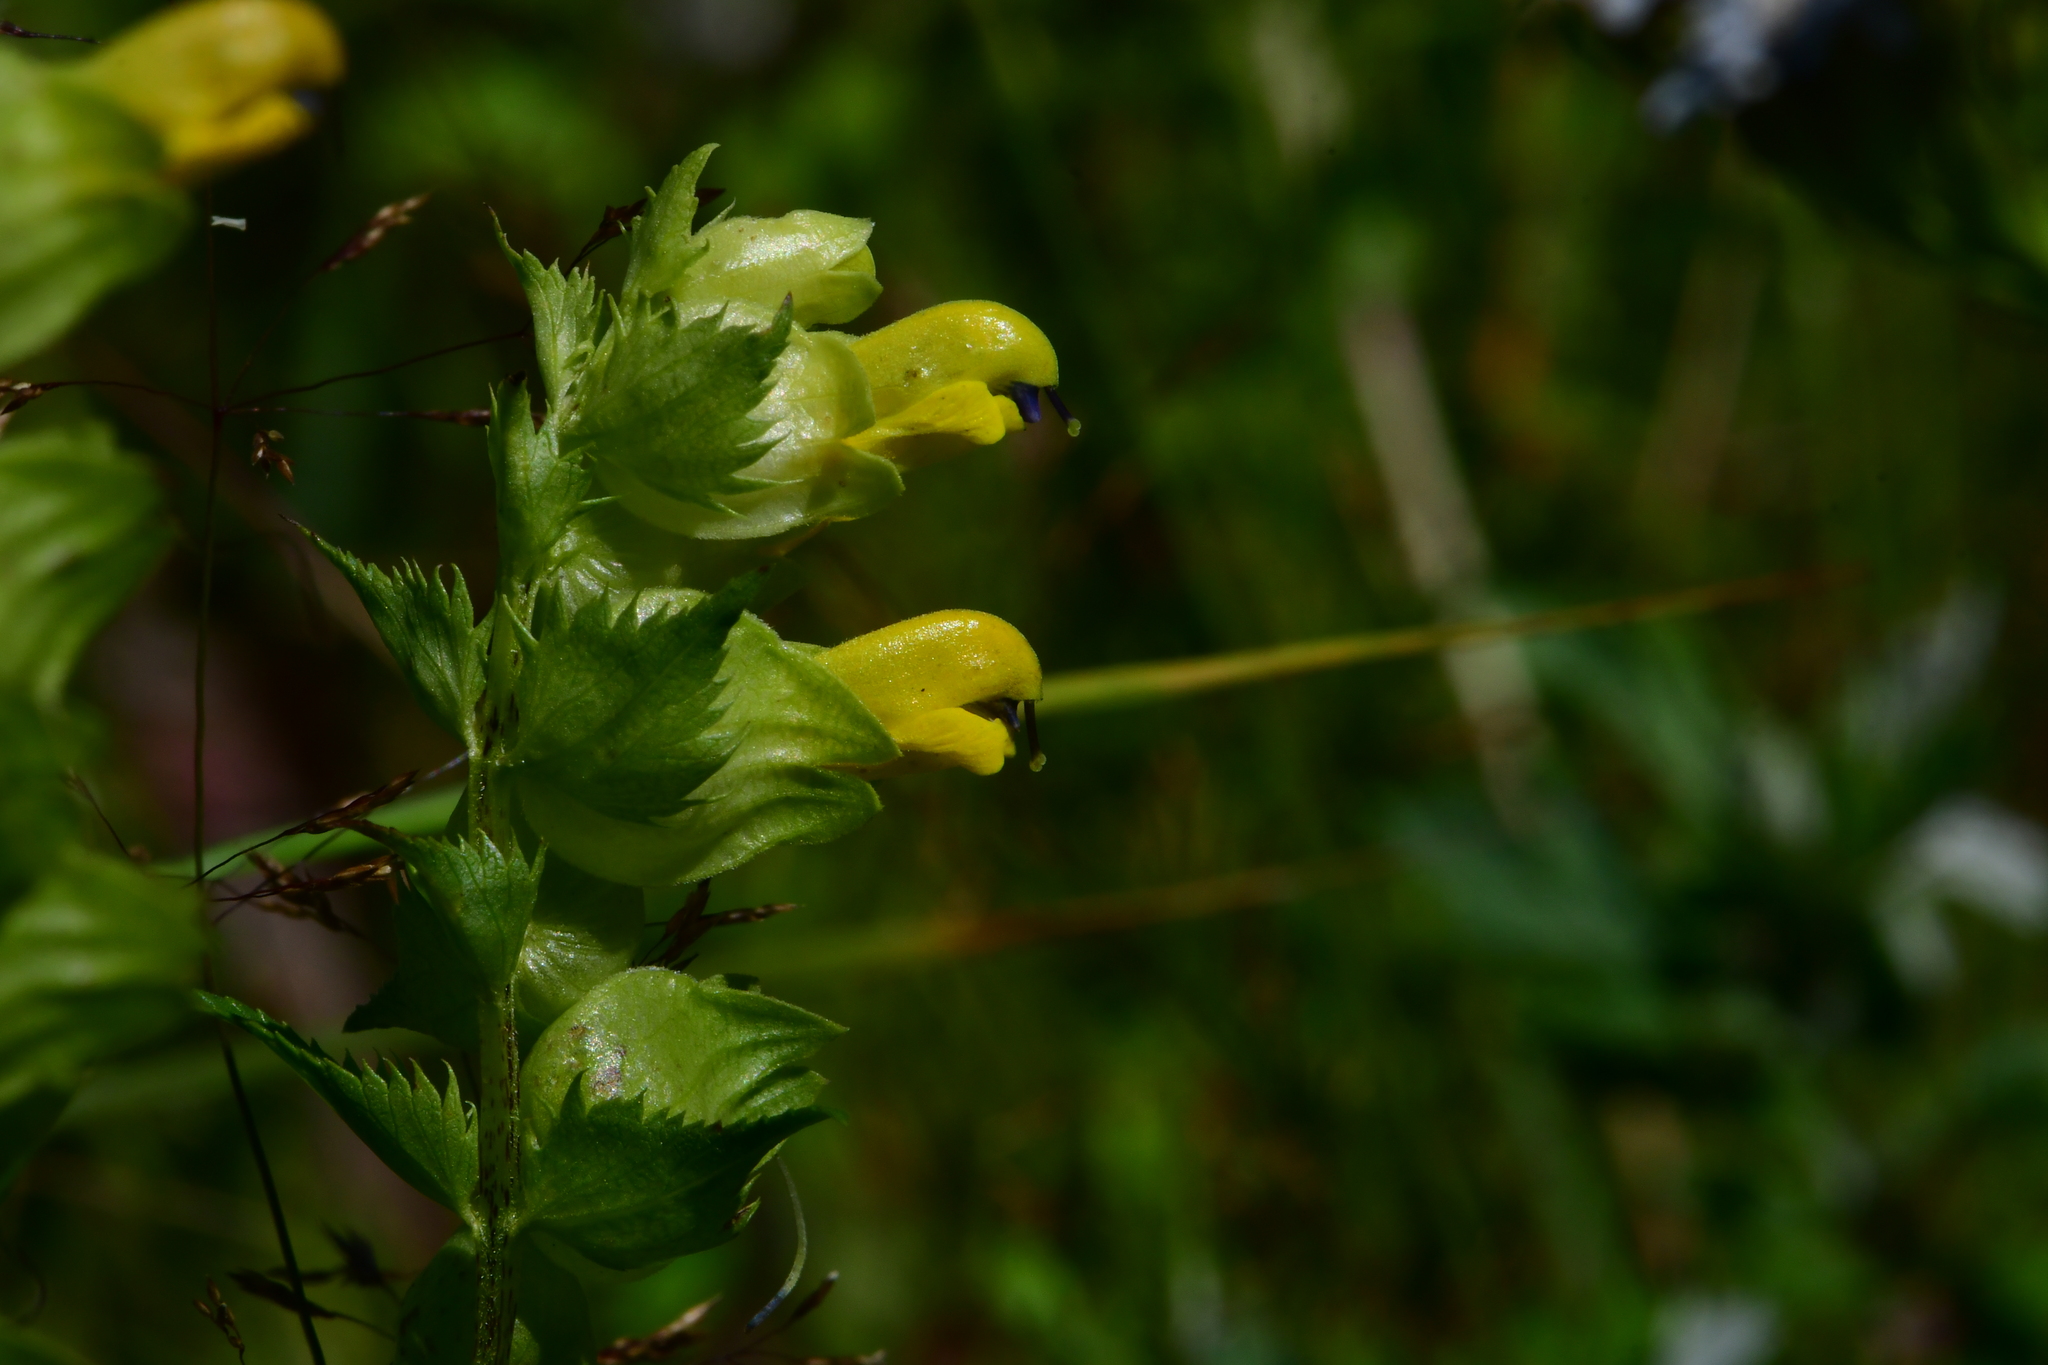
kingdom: Plantae
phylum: Tracheophyta
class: Magnoliopsida
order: Lamiales
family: Orobanchaceae
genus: Rhinanthus
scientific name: Rhinanthus serotinus
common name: Late-flowering yellow rattle
